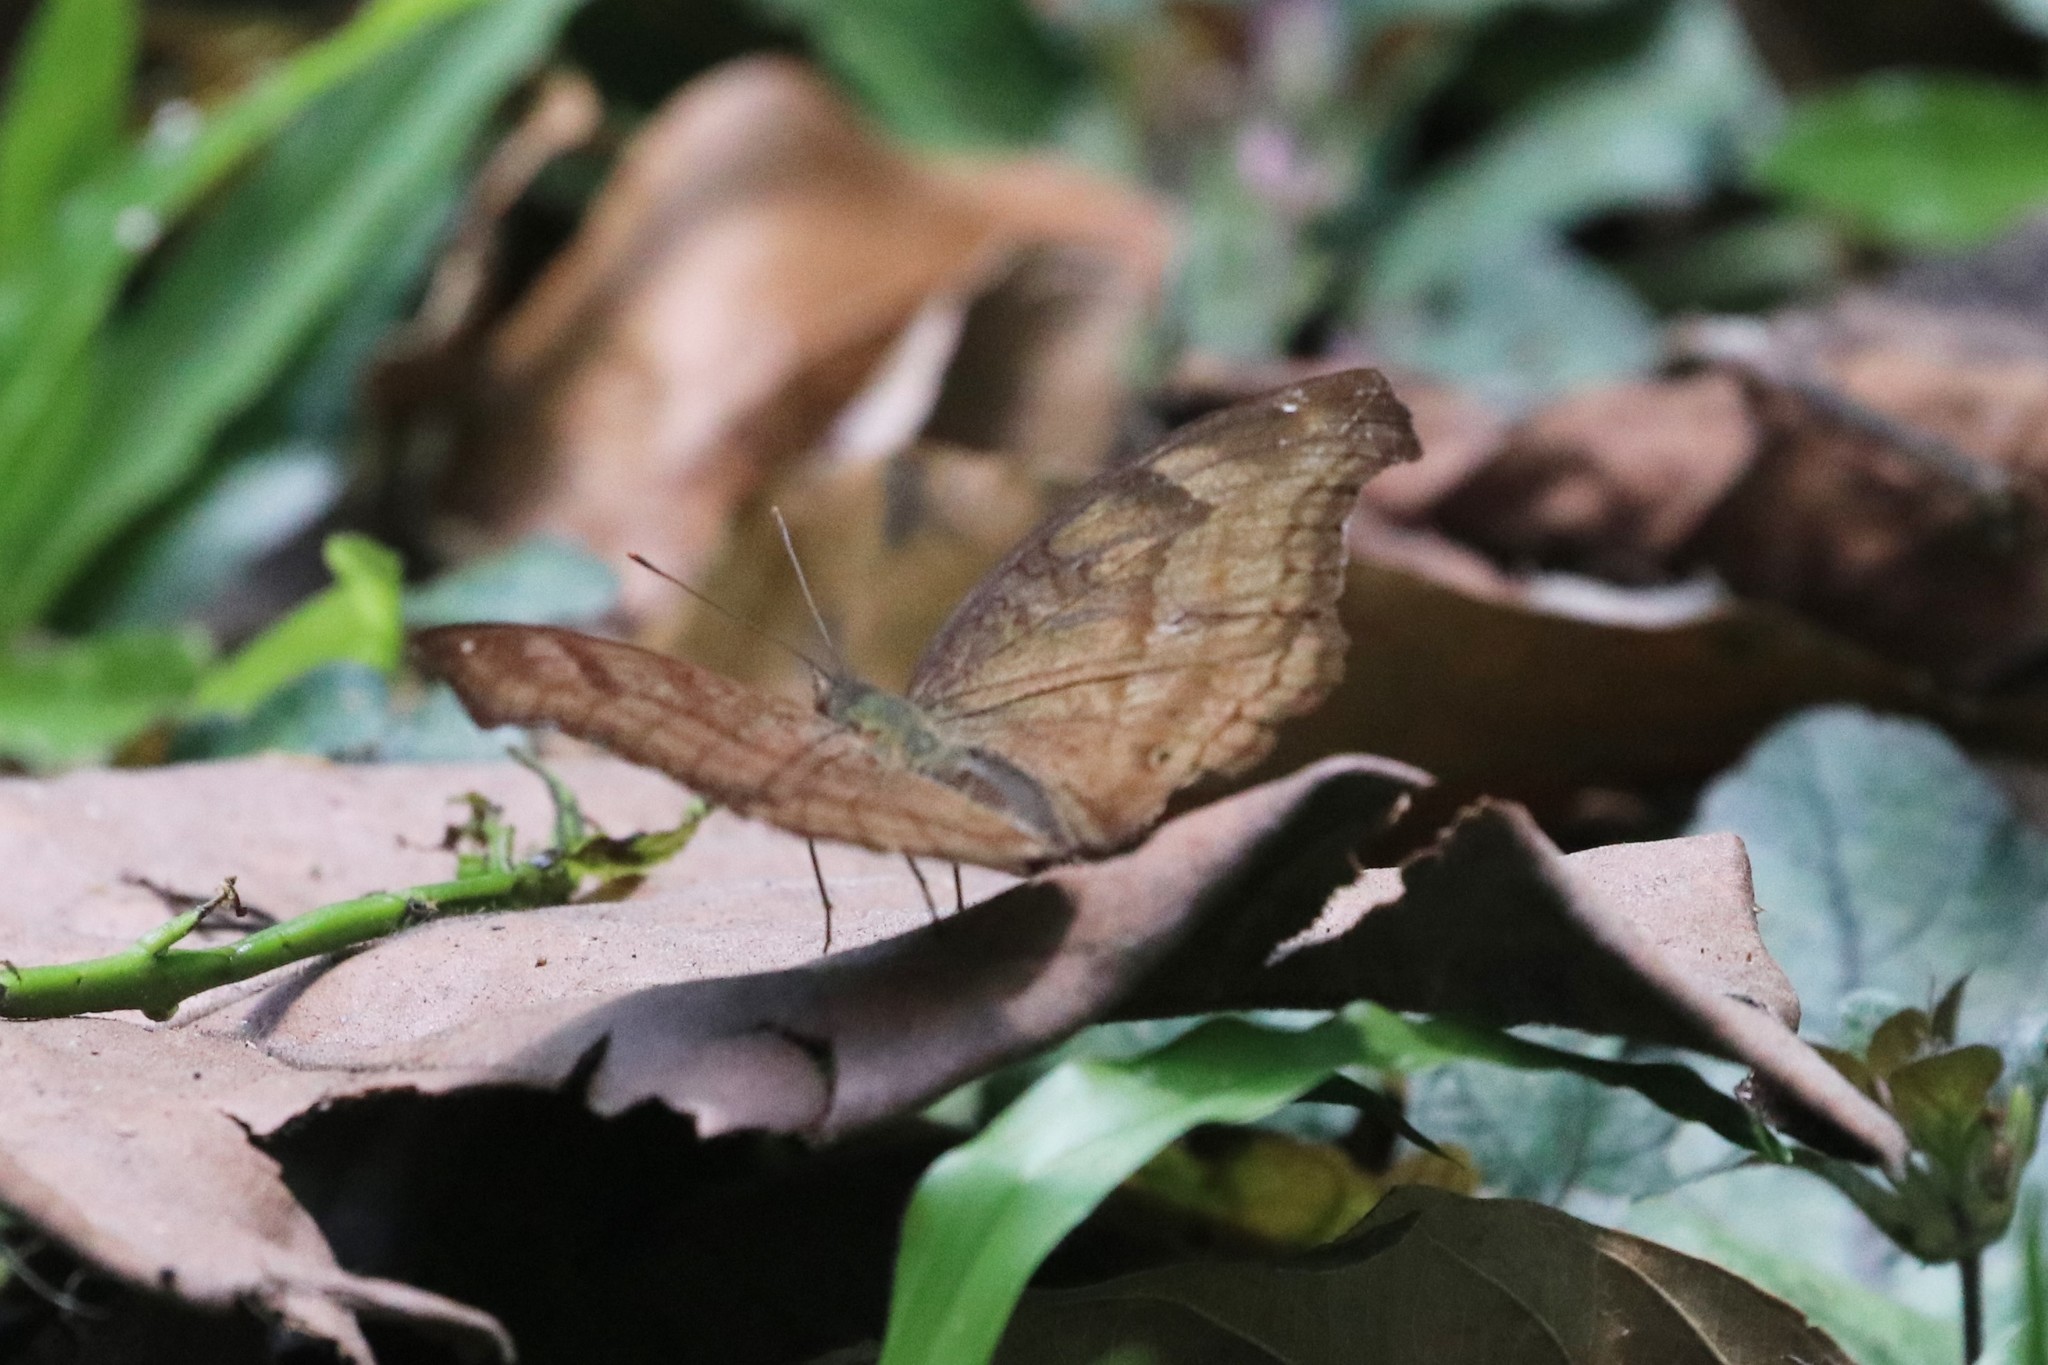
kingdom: Animalia
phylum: Arthropoda
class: Insecta
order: Lepidoptera
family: Nymphalidae
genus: Junonia
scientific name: Junonia iphita
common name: Chocolate pansy
